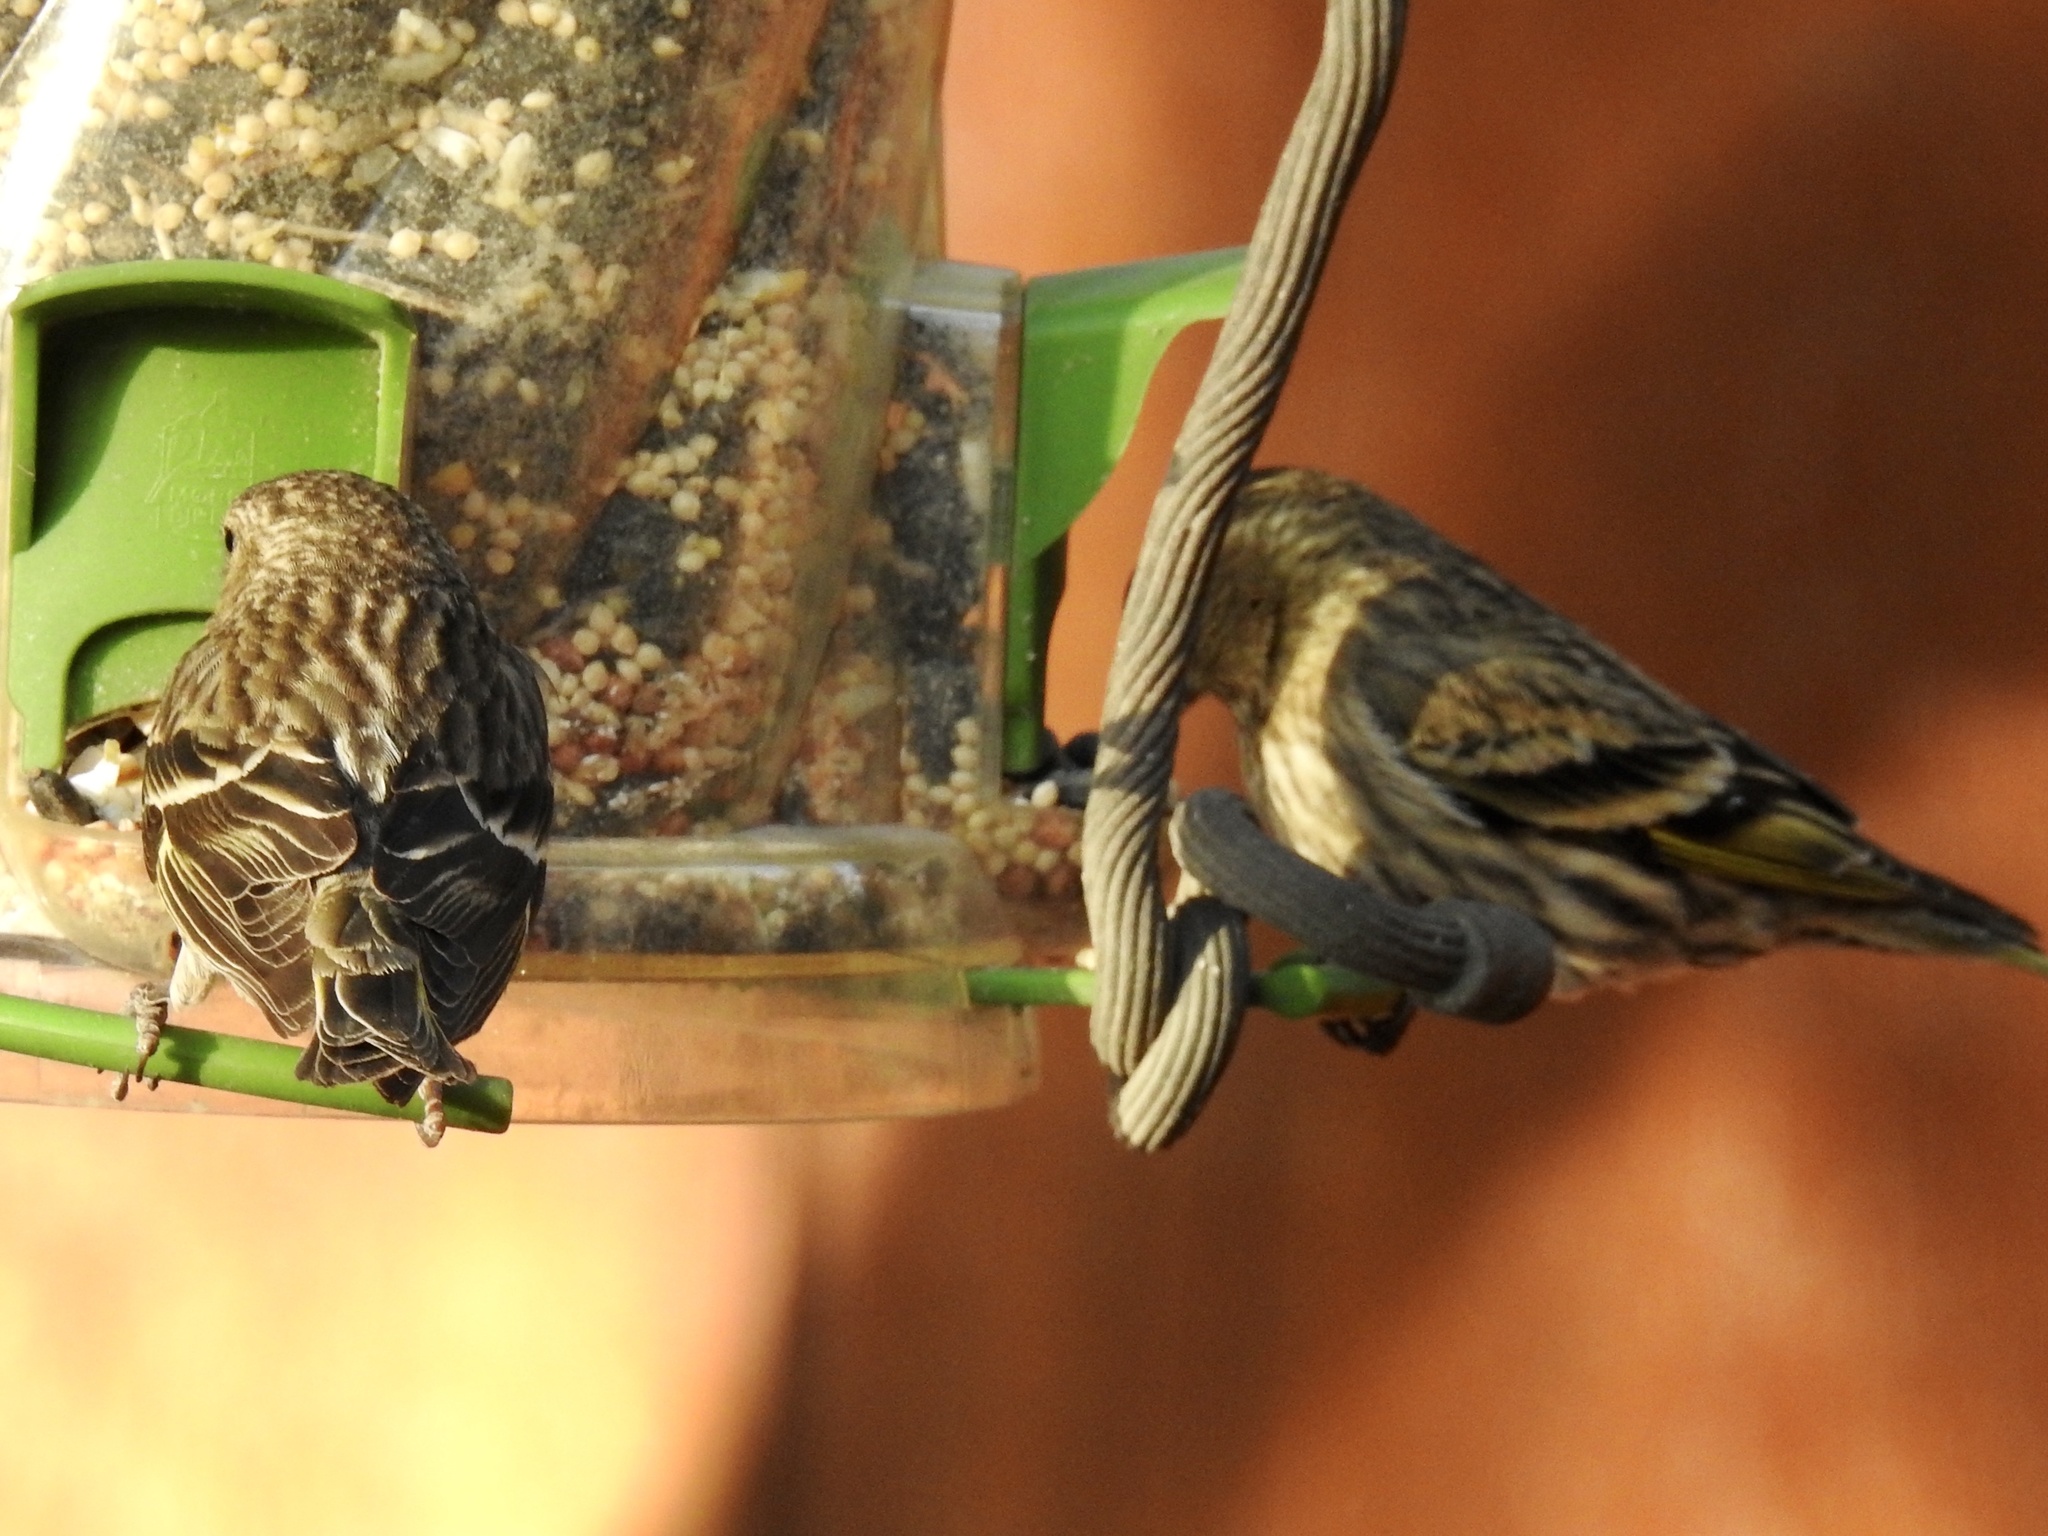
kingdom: Animalia
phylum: Chordata
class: Aves
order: Passeriformes
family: Fringillidae
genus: Spinus
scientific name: Spinus pinus
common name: Pine siskin
